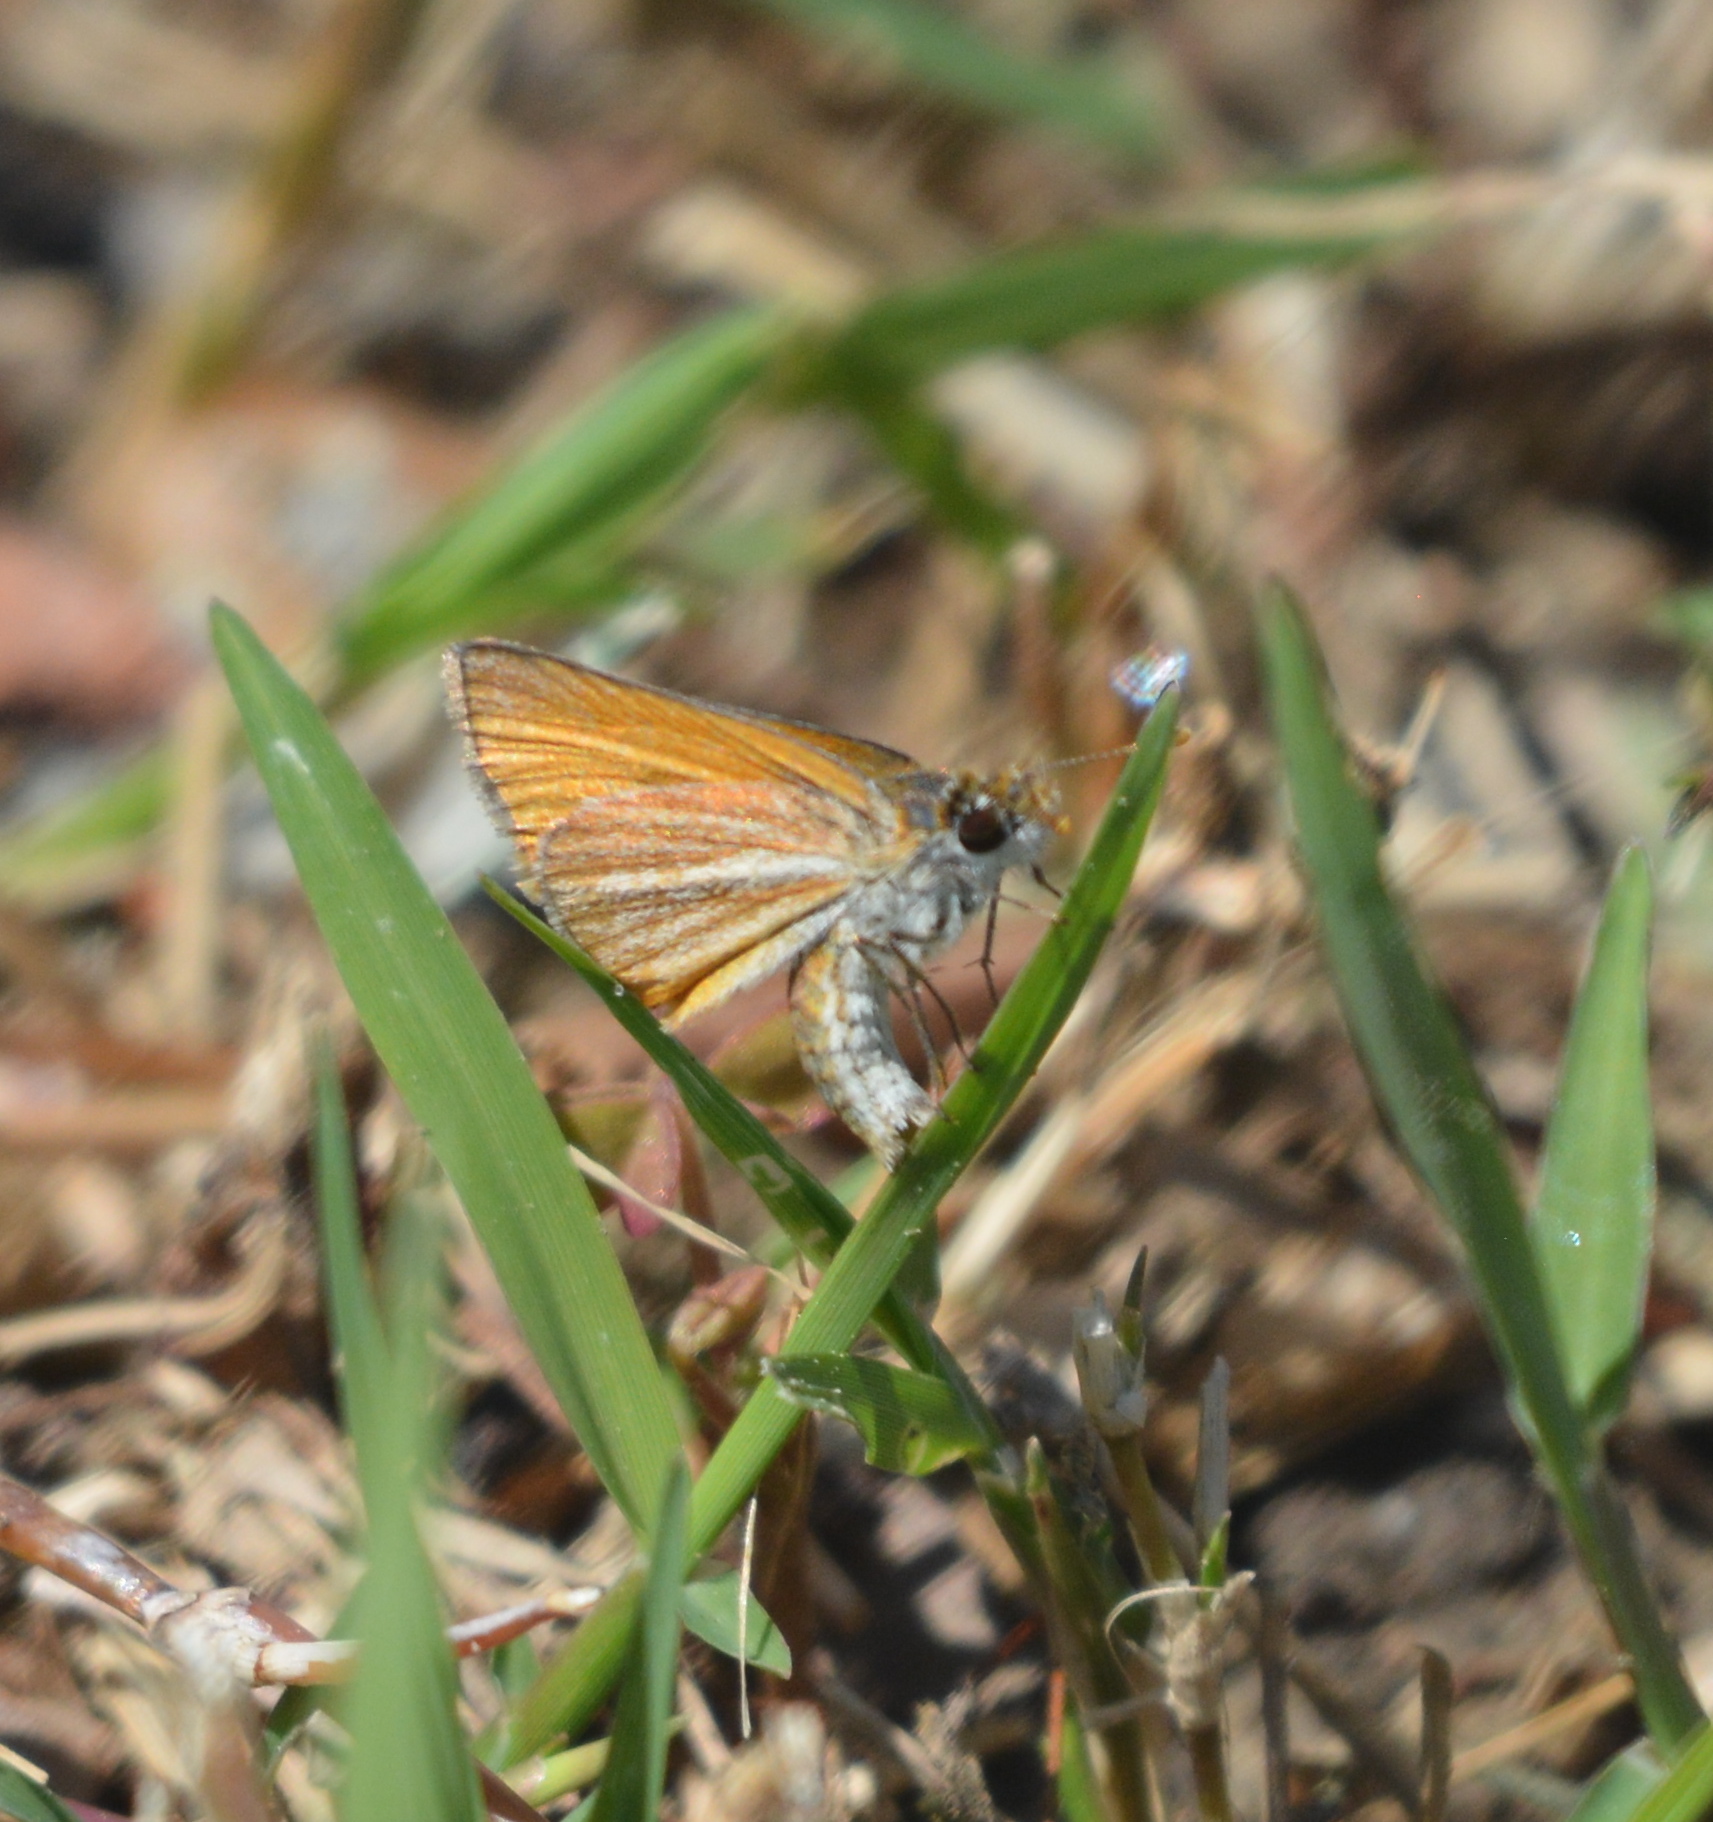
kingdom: Animalia
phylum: Arthropoda
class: Insecta
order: Lepidoptera
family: Hesperiidae
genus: Copaeodes
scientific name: Copaeodes minima
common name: Southern skipperling
